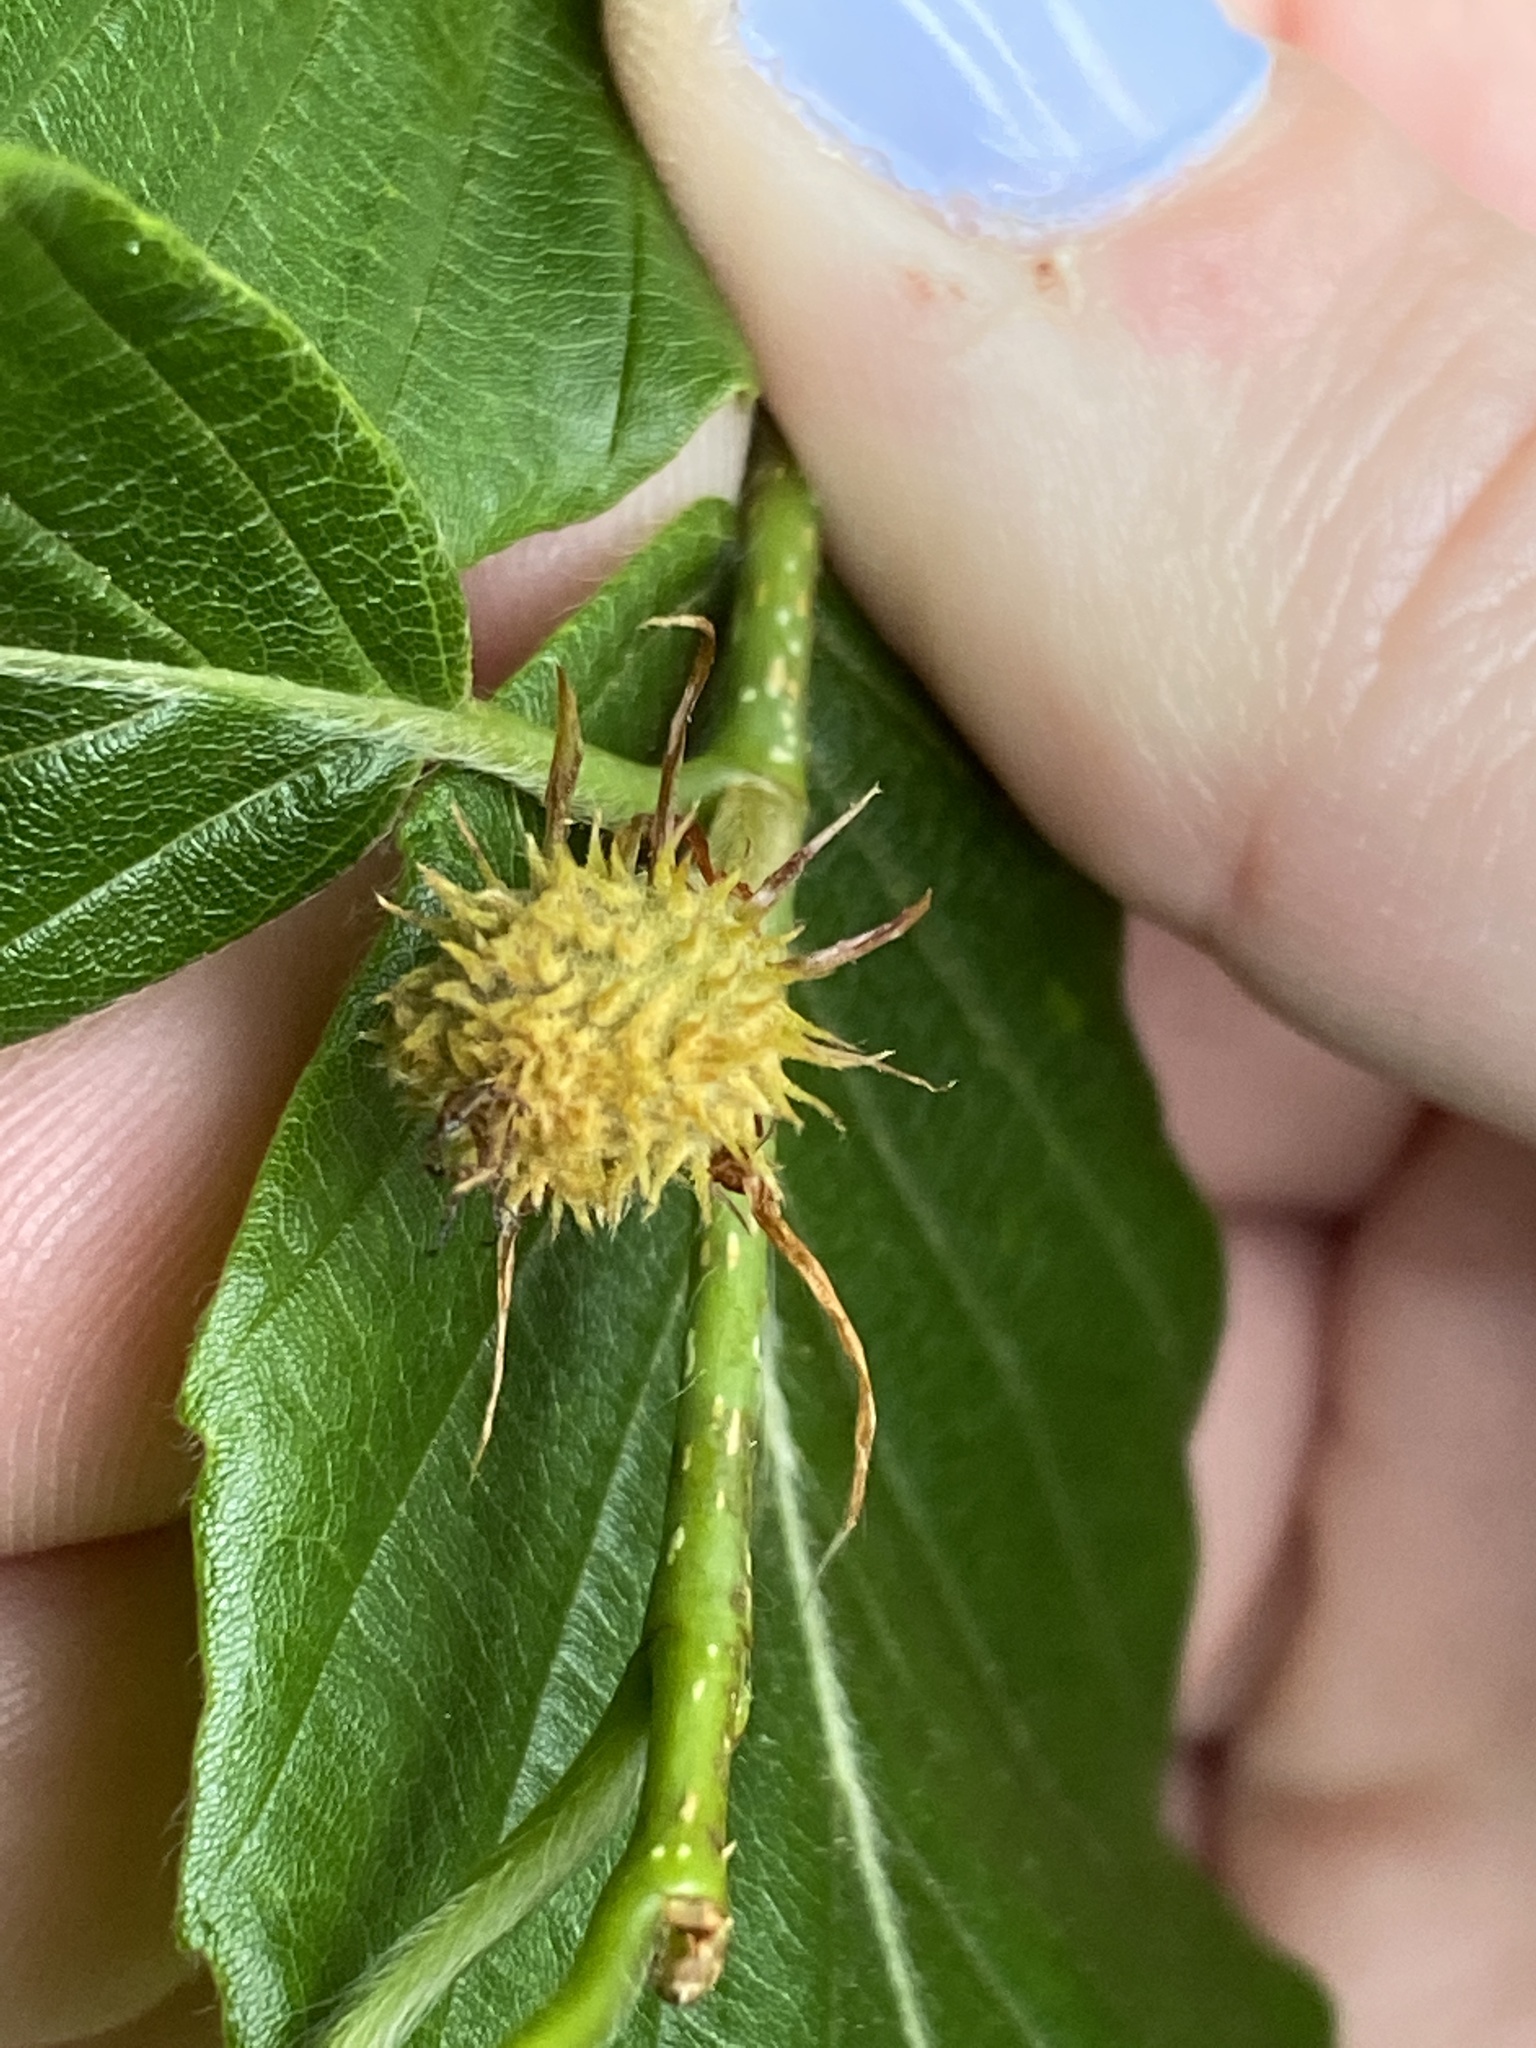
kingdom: Plantae
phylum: Tracheophyta
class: Magnoliopsida
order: Fagales
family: Fagaceae
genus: Fagus
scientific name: Fagus grandifolia
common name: American beech
